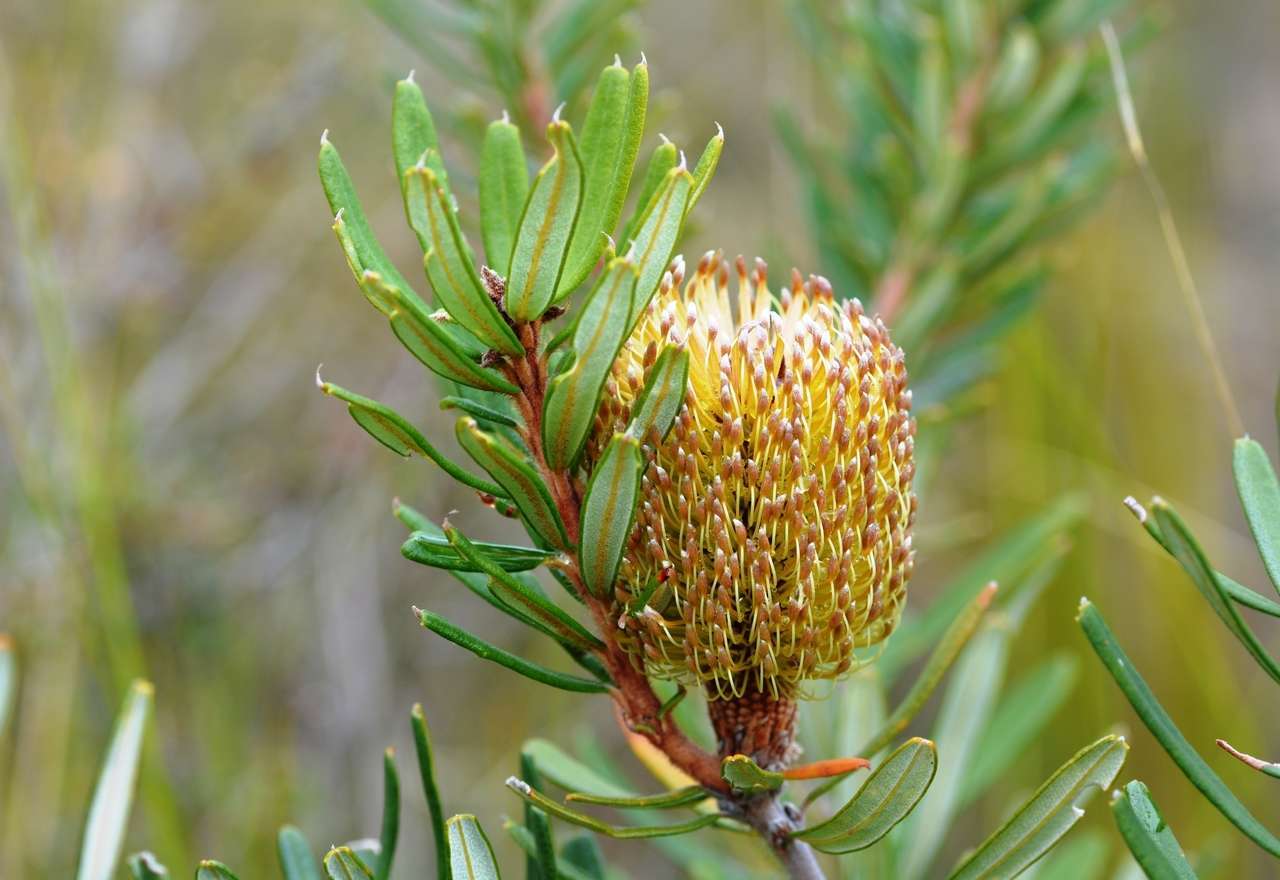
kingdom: Plantae
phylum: Tracheophyta
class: Magnoliopsida
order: Proteales
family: Proteaceae
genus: Banksia
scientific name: Banksia marginata
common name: Silver banksia
